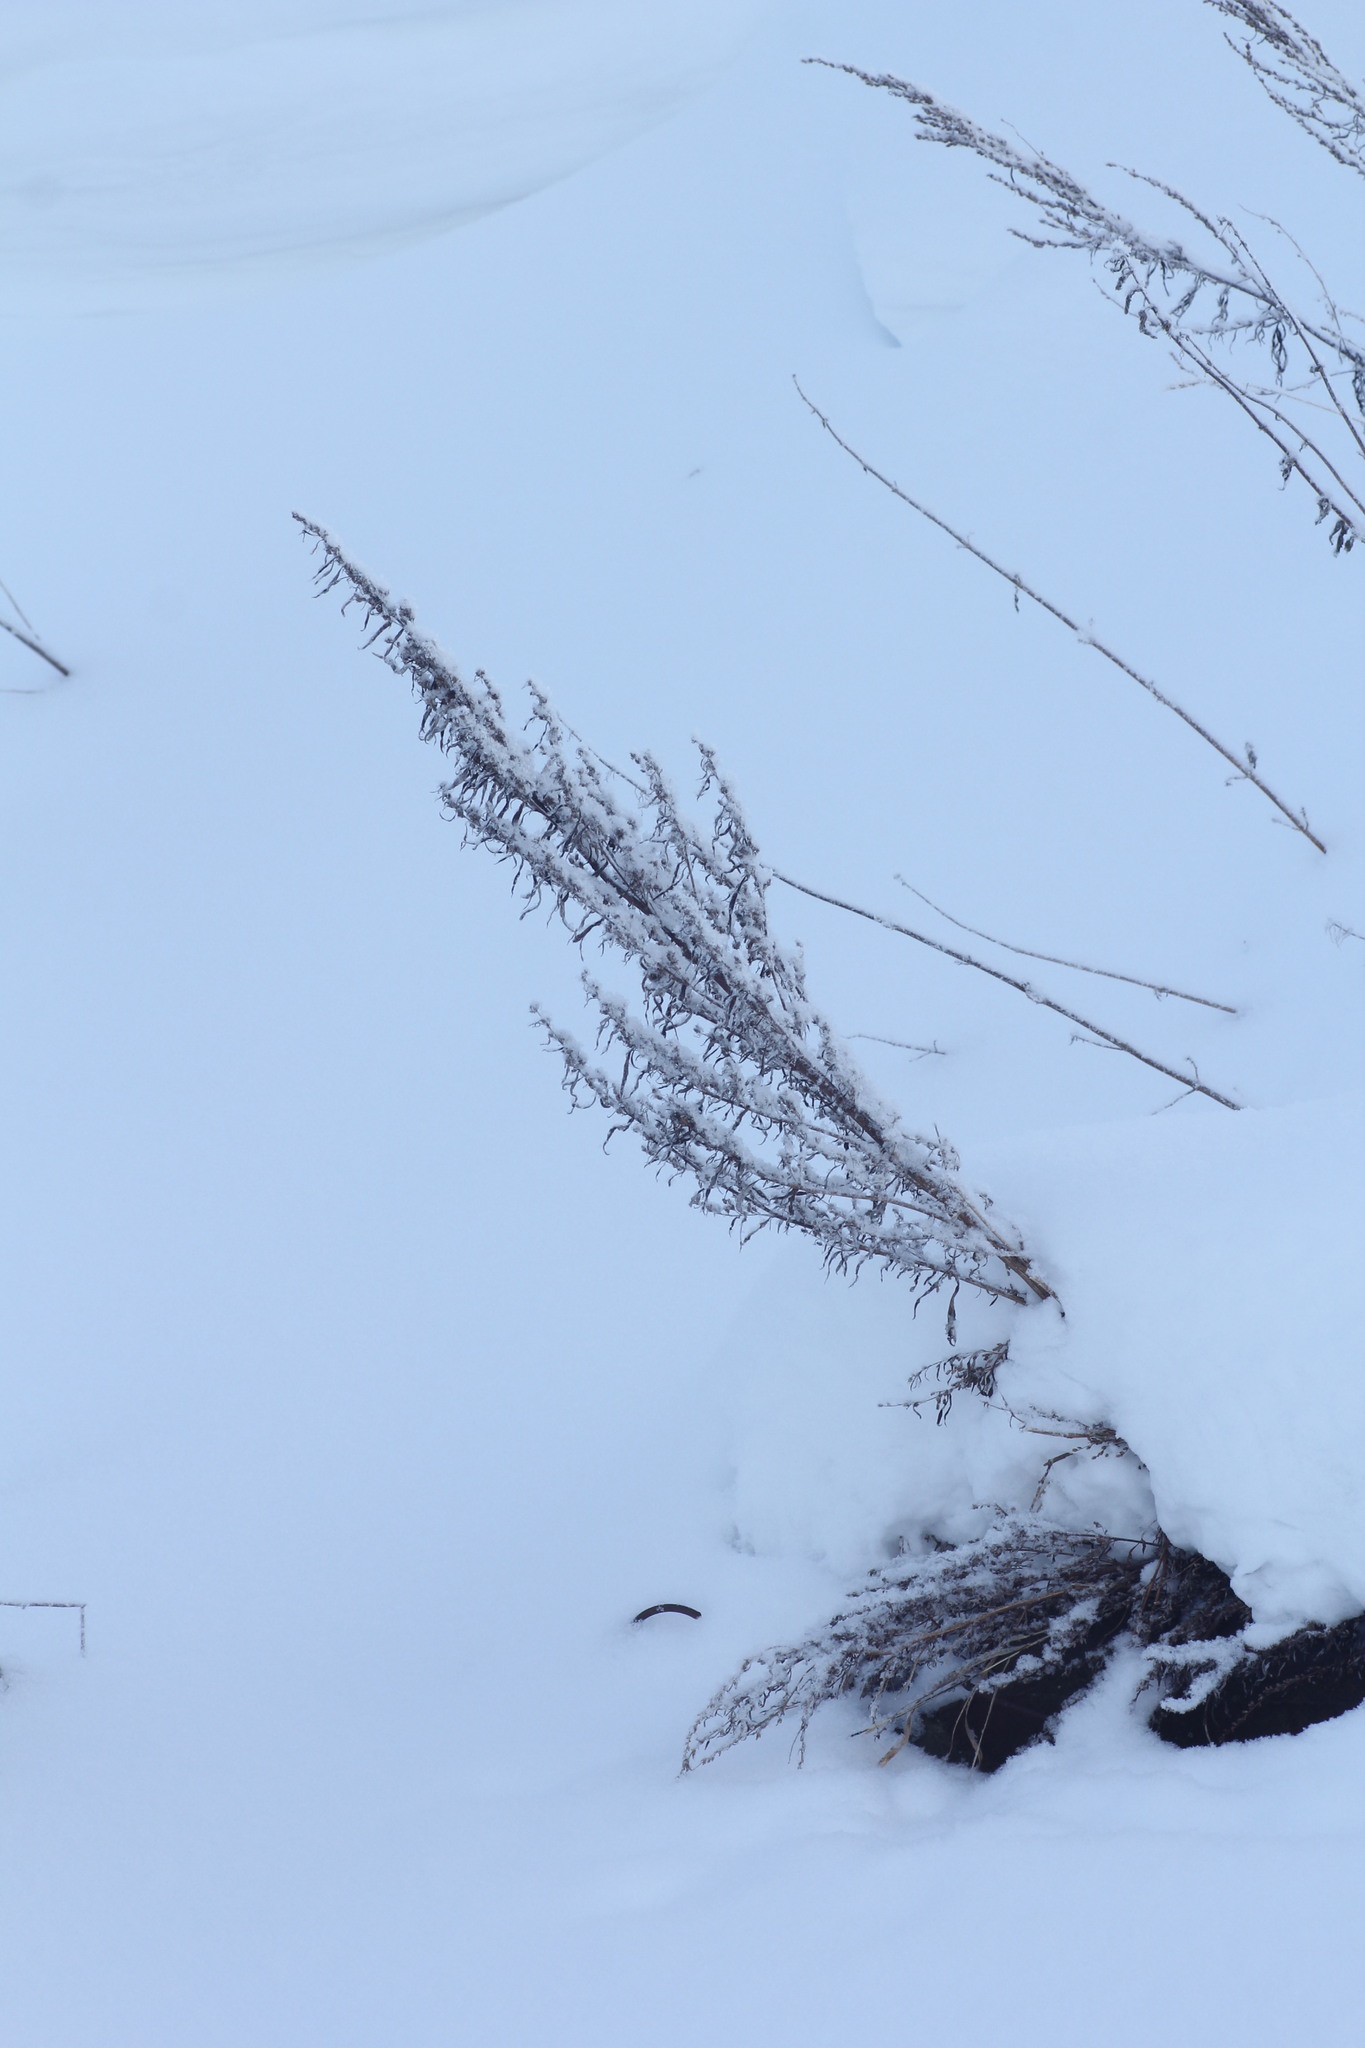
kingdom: Plantae
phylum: Tracheophyta
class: Magnoliopsida
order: Asterales
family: Asteraceae
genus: Artemisia
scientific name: Artemisia vulgaris
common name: Mugwort
